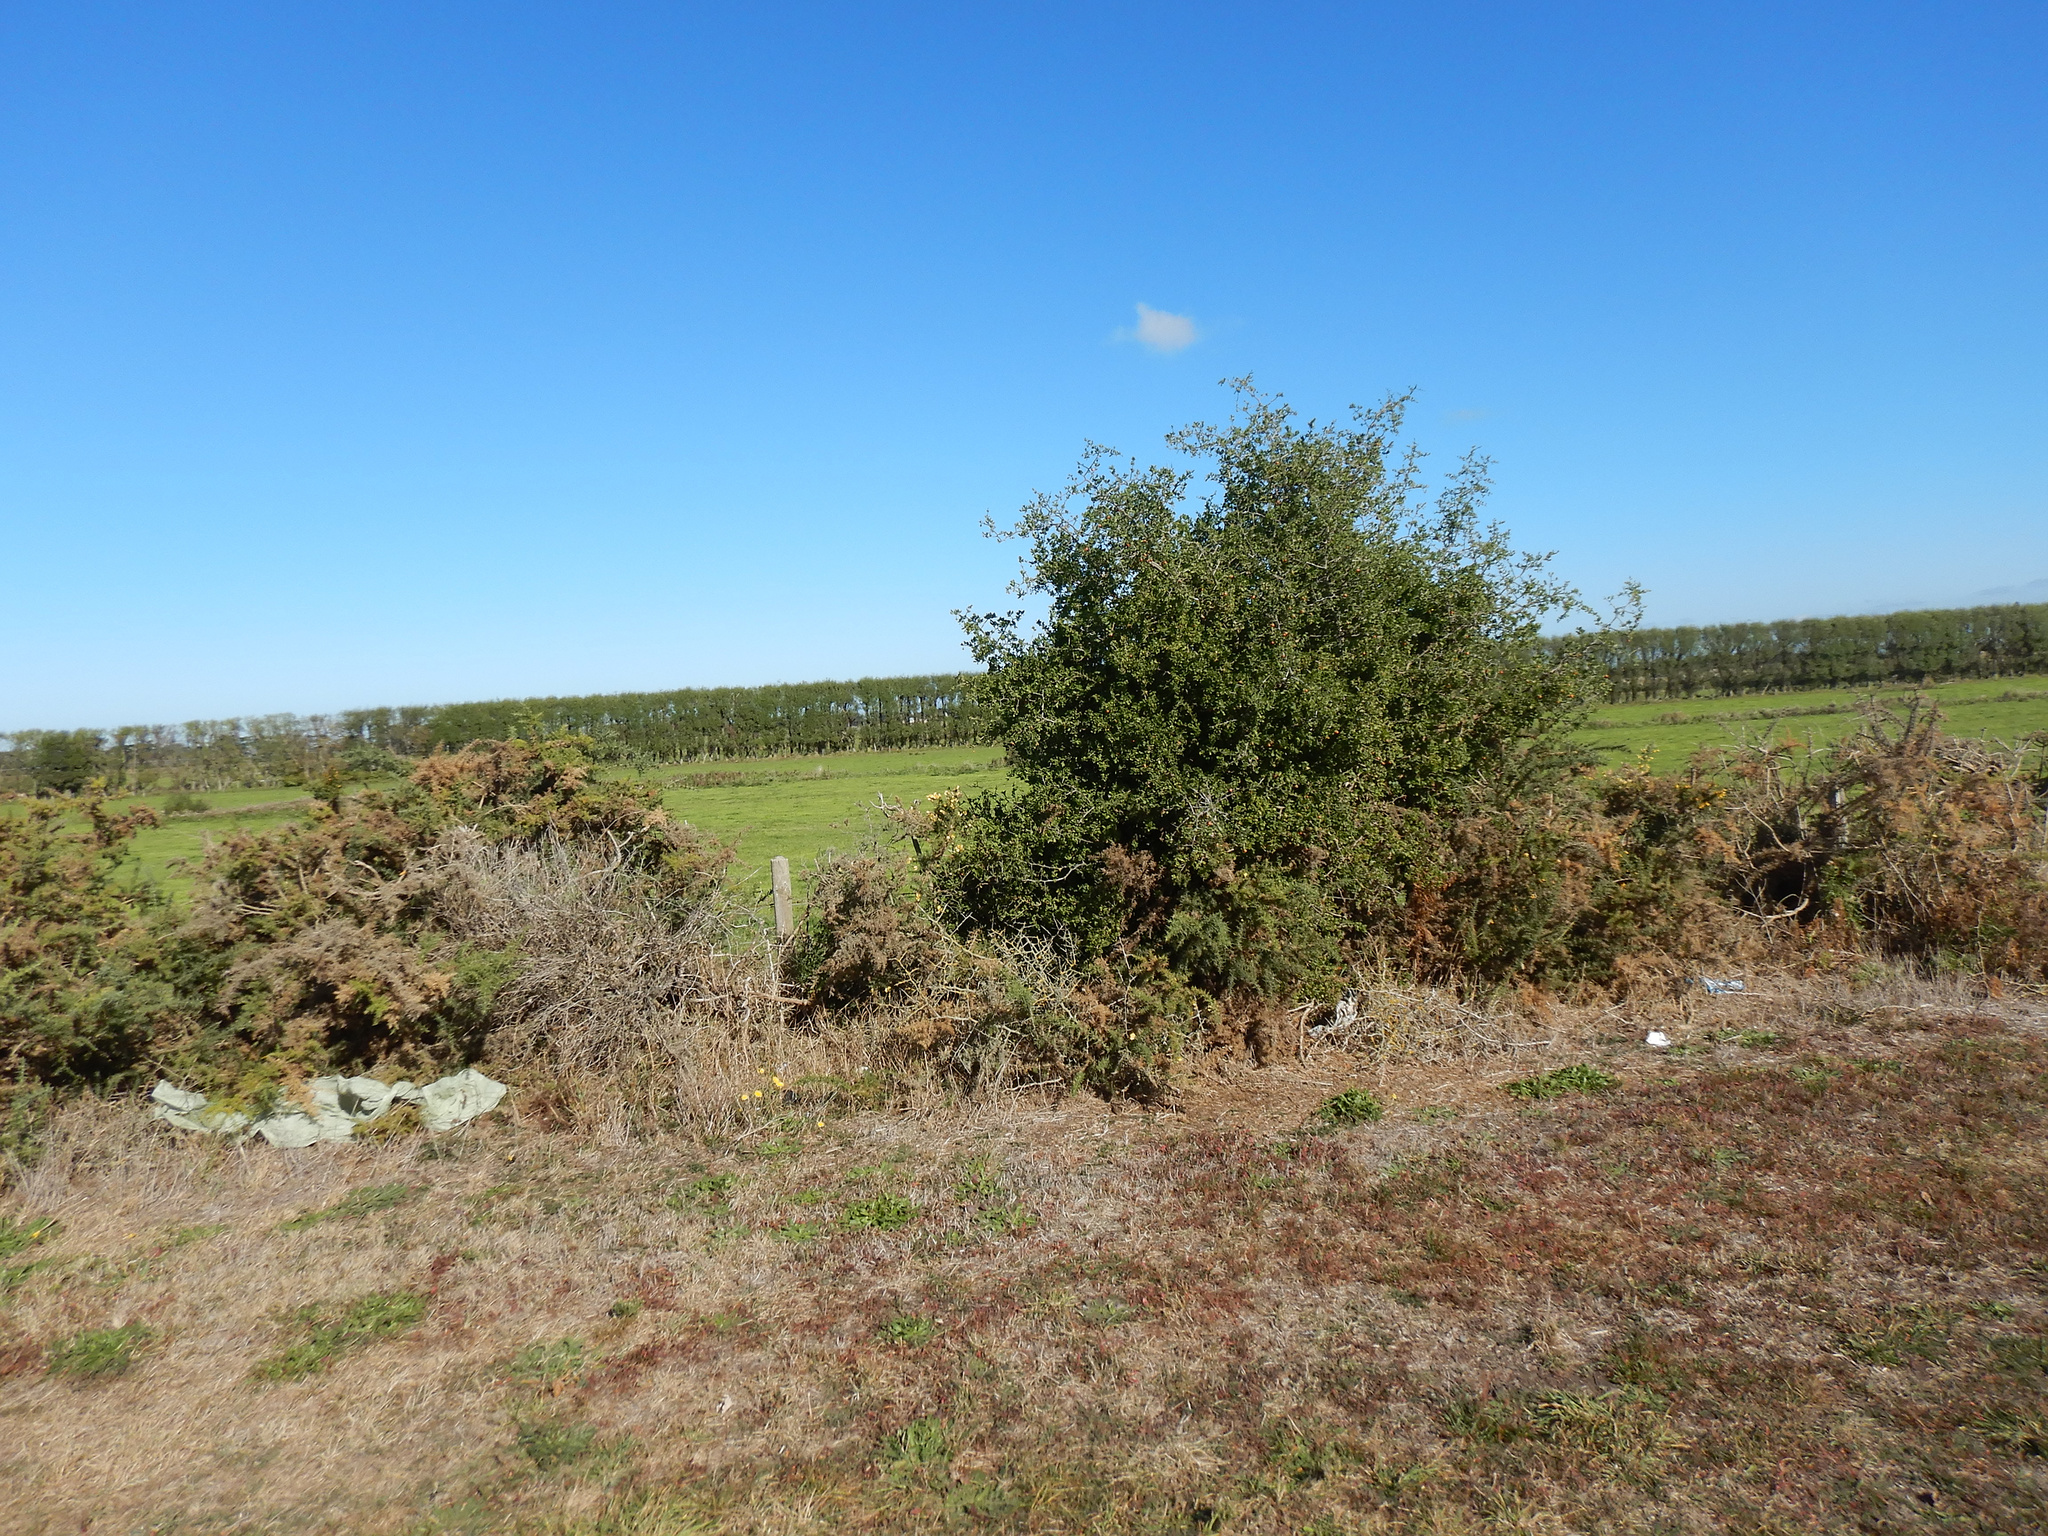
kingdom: Plantae
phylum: Tracheophyta
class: Magnoliopsida
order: Solanales
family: Solanaceae
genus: Lycium
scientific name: Lycium ferocissimum
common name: African boxthorn
